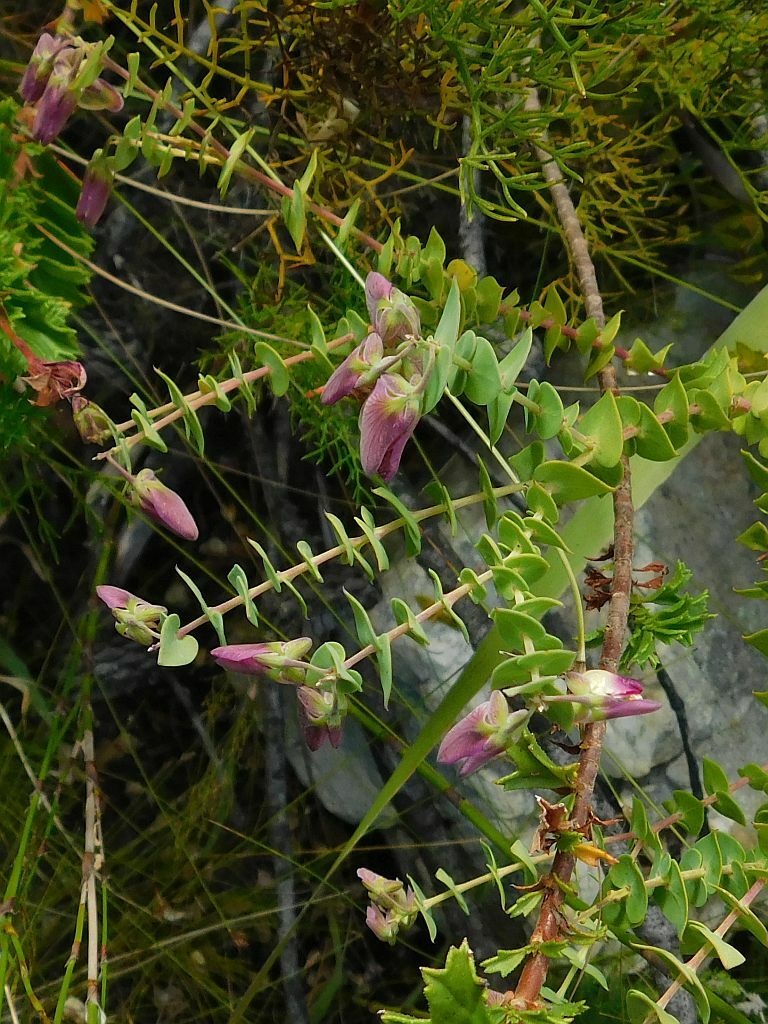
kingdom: Plantae
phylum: Tracheophyta
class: Magnoliopsida
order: Fabales
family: Polygalaceae
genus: Polygala
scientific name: Polygala fruticosa
